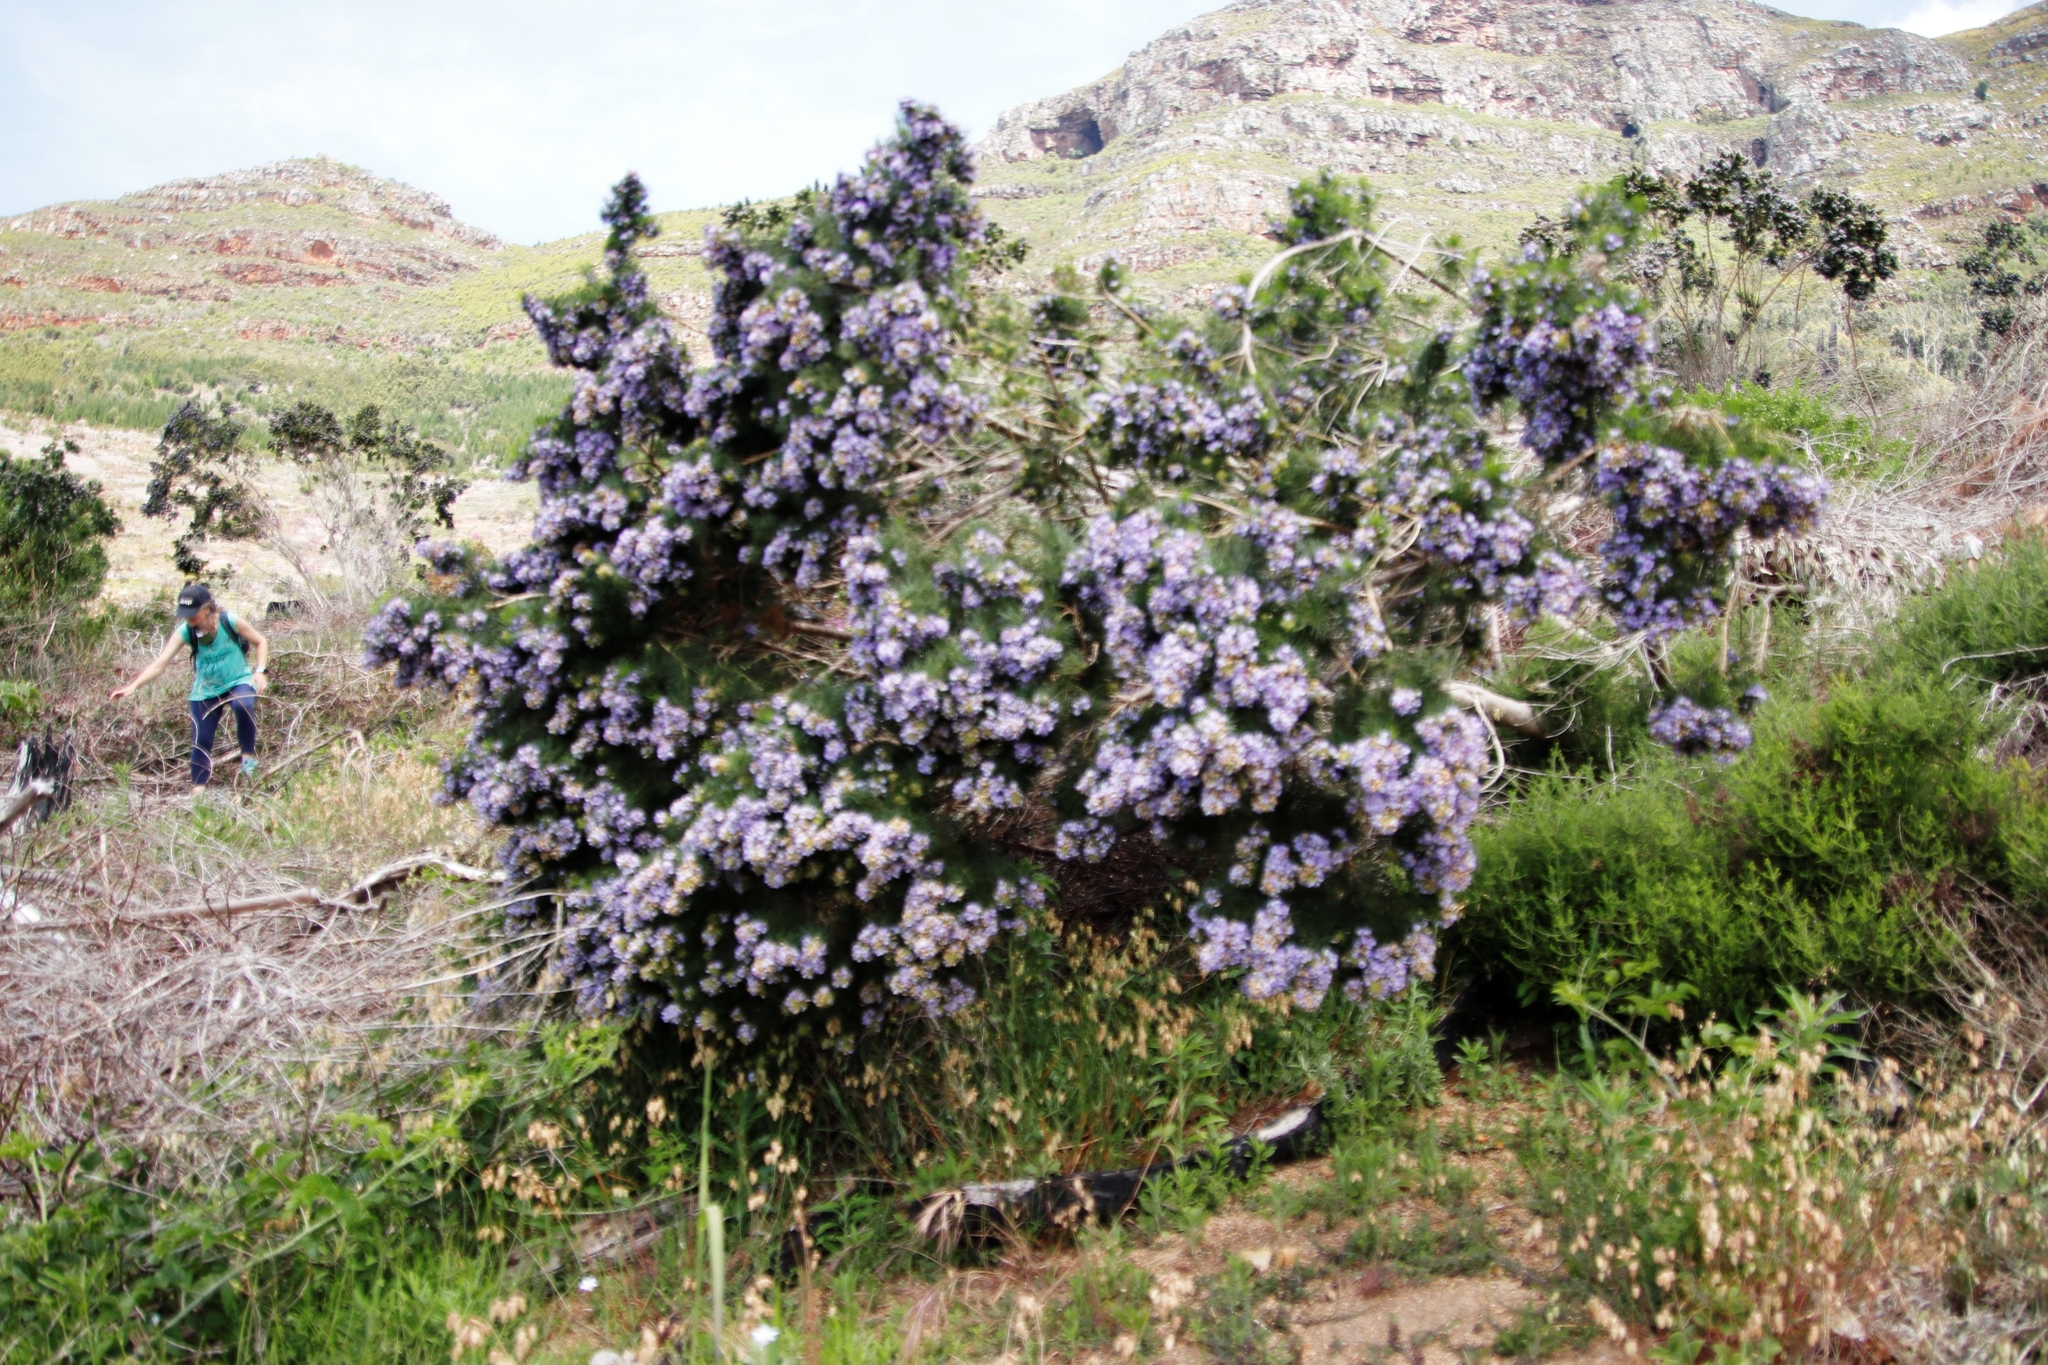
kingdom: Plantae
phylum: Tracheophyta
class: Magnoliopsida
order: Fabales
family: Fabaceae
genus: Psoralea
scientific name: Psoralea pinnata
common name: African scurfpea
